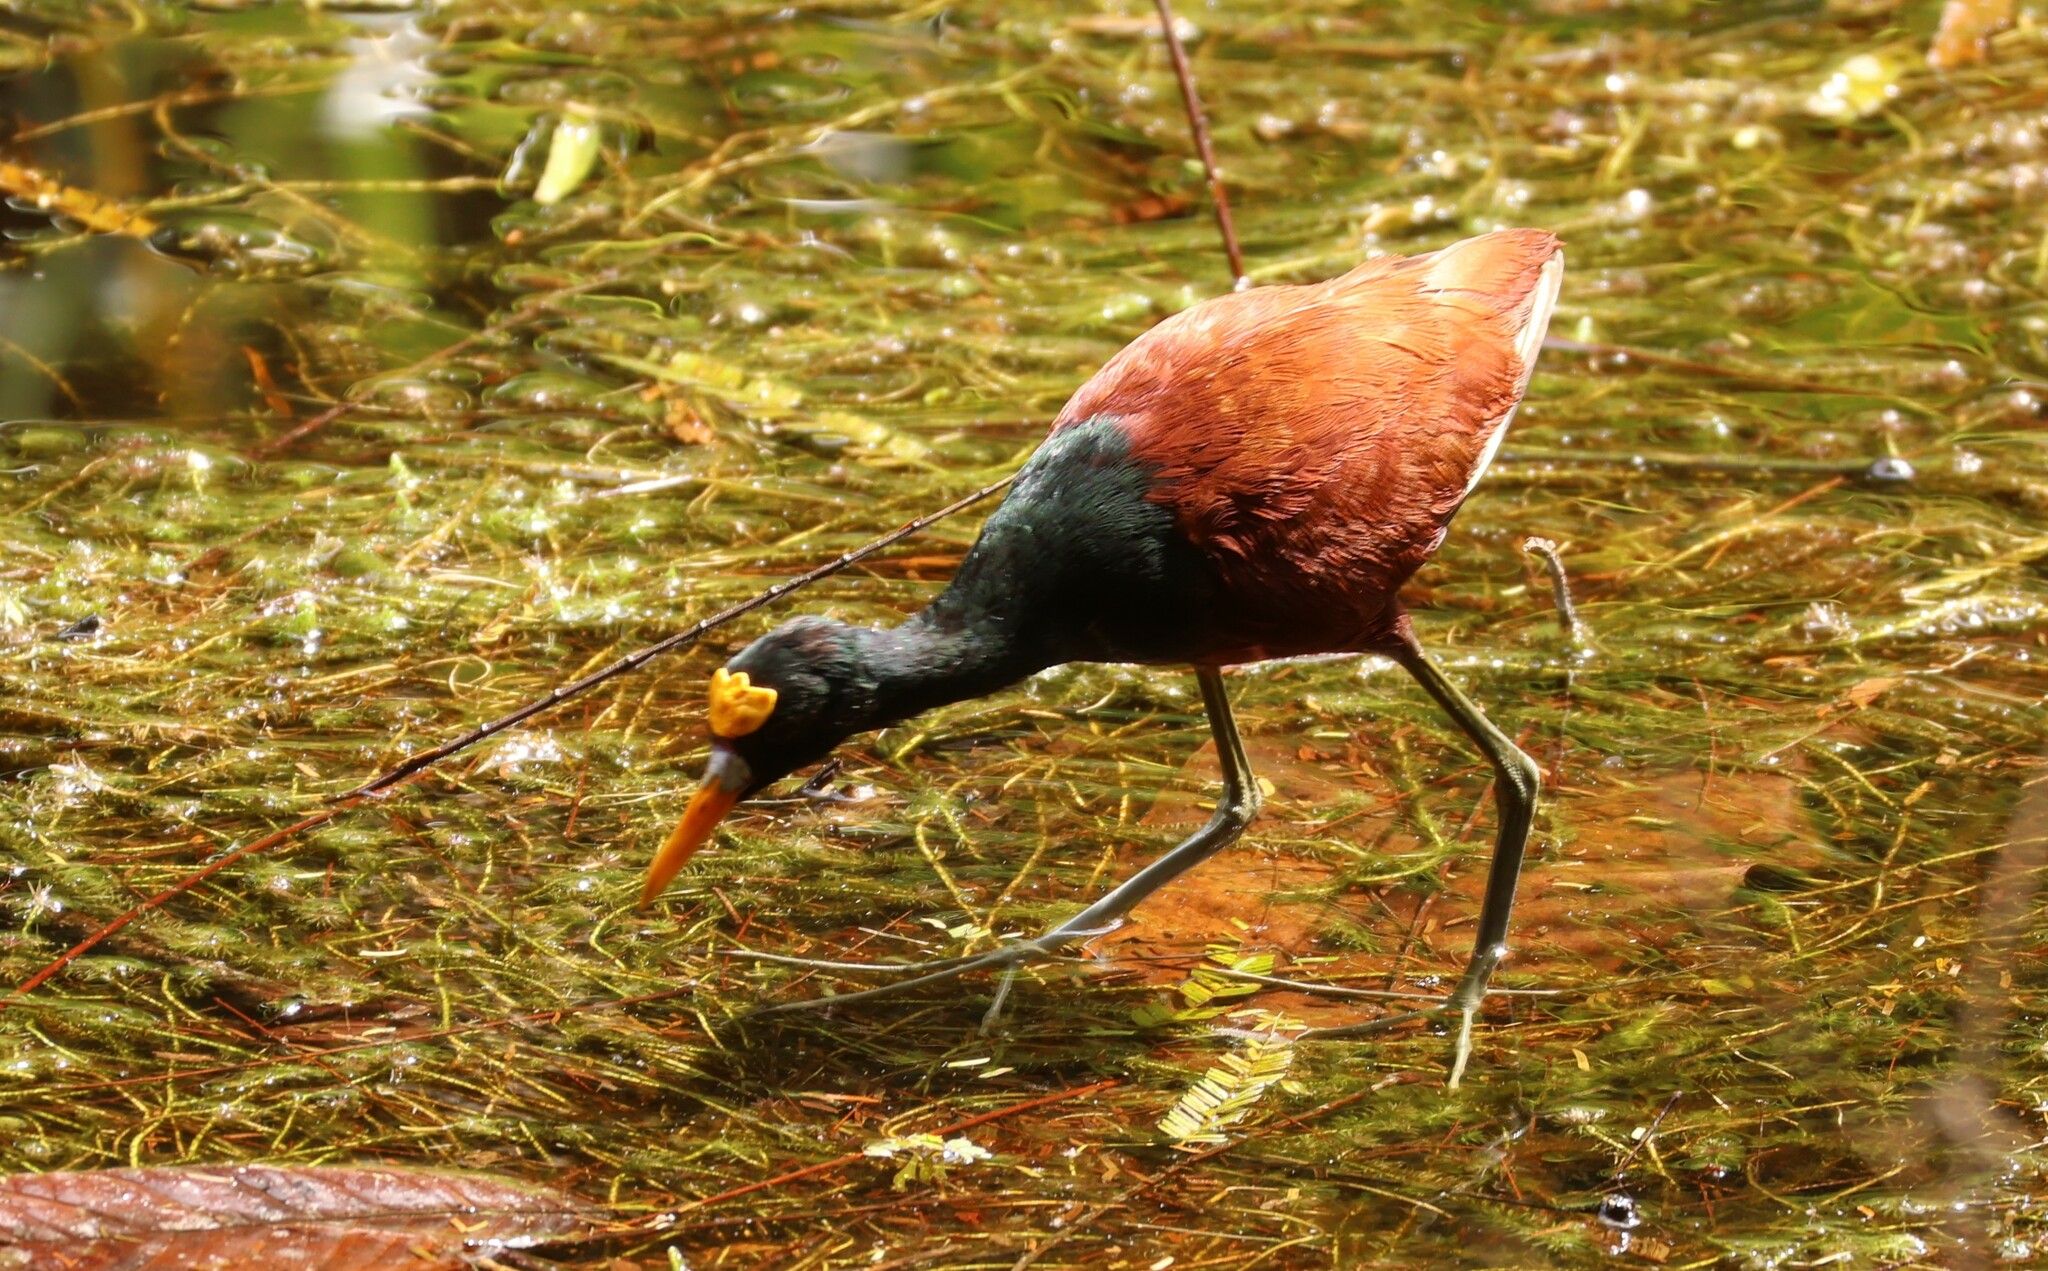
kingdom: Animalia
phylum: Chordata
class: Aves
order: Charadriiformes
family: Jacanidae
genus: Jacana
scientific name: Jacana spinosa
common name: Northern jacana
